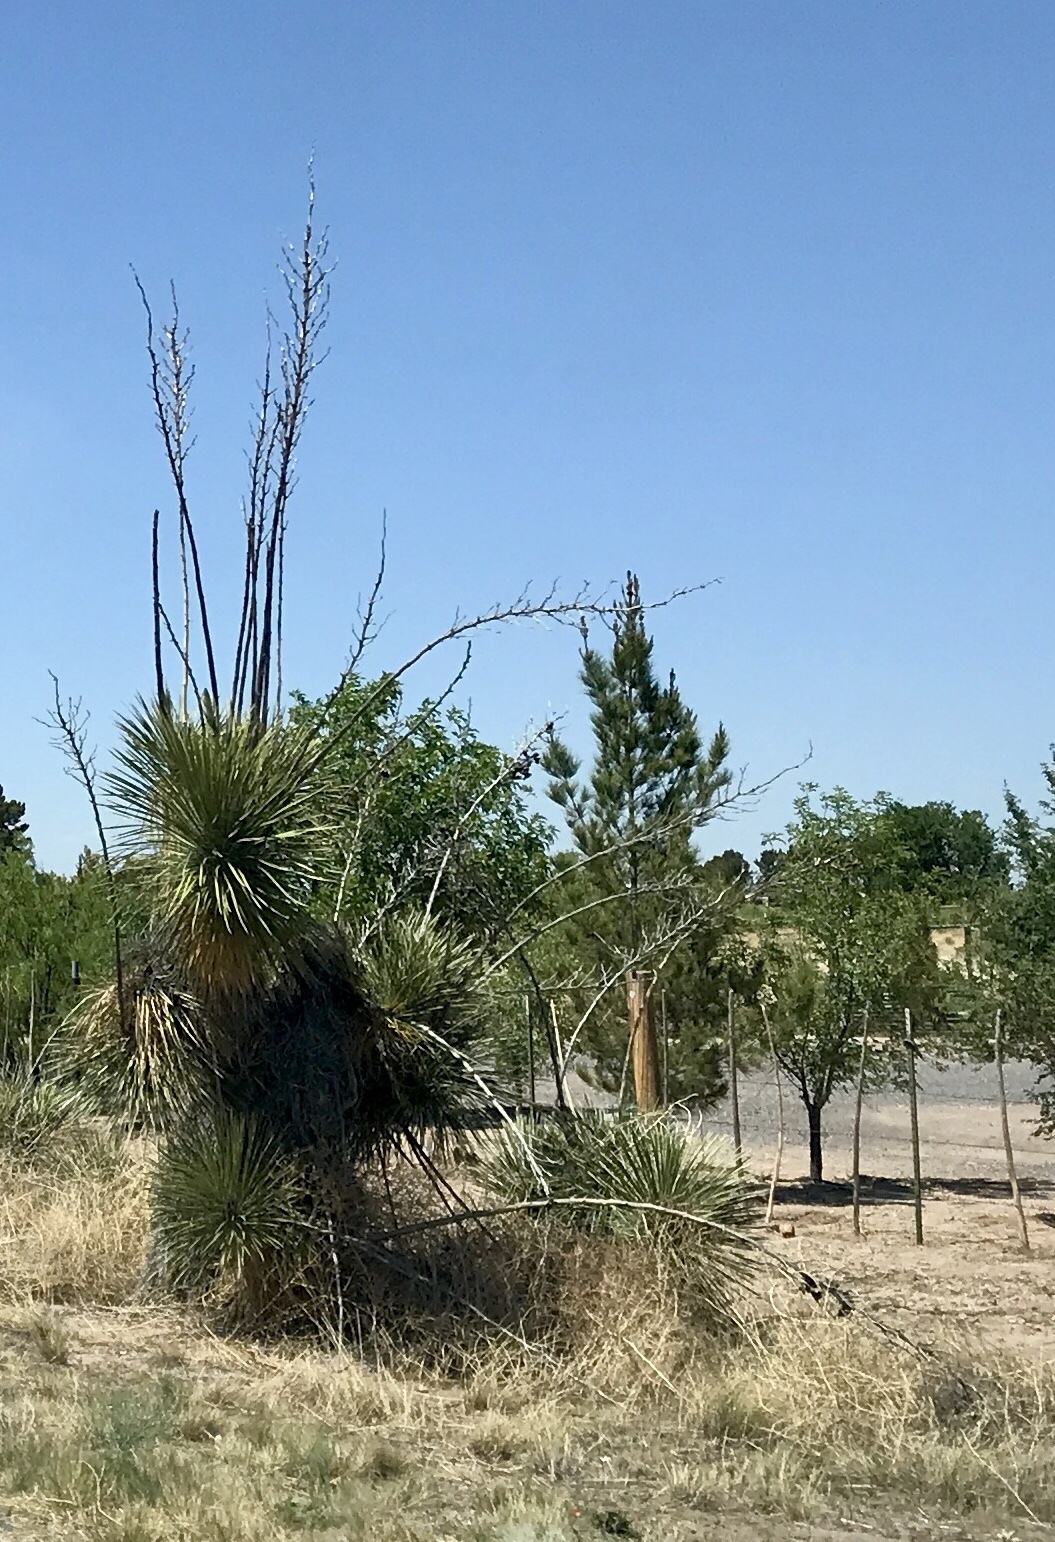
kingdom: Plantae
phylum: Tracheophyta
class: Liliopsida
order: Asparagales
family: Asparagaceae
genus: Yucca
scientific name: Yucca elata
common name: Palmella
